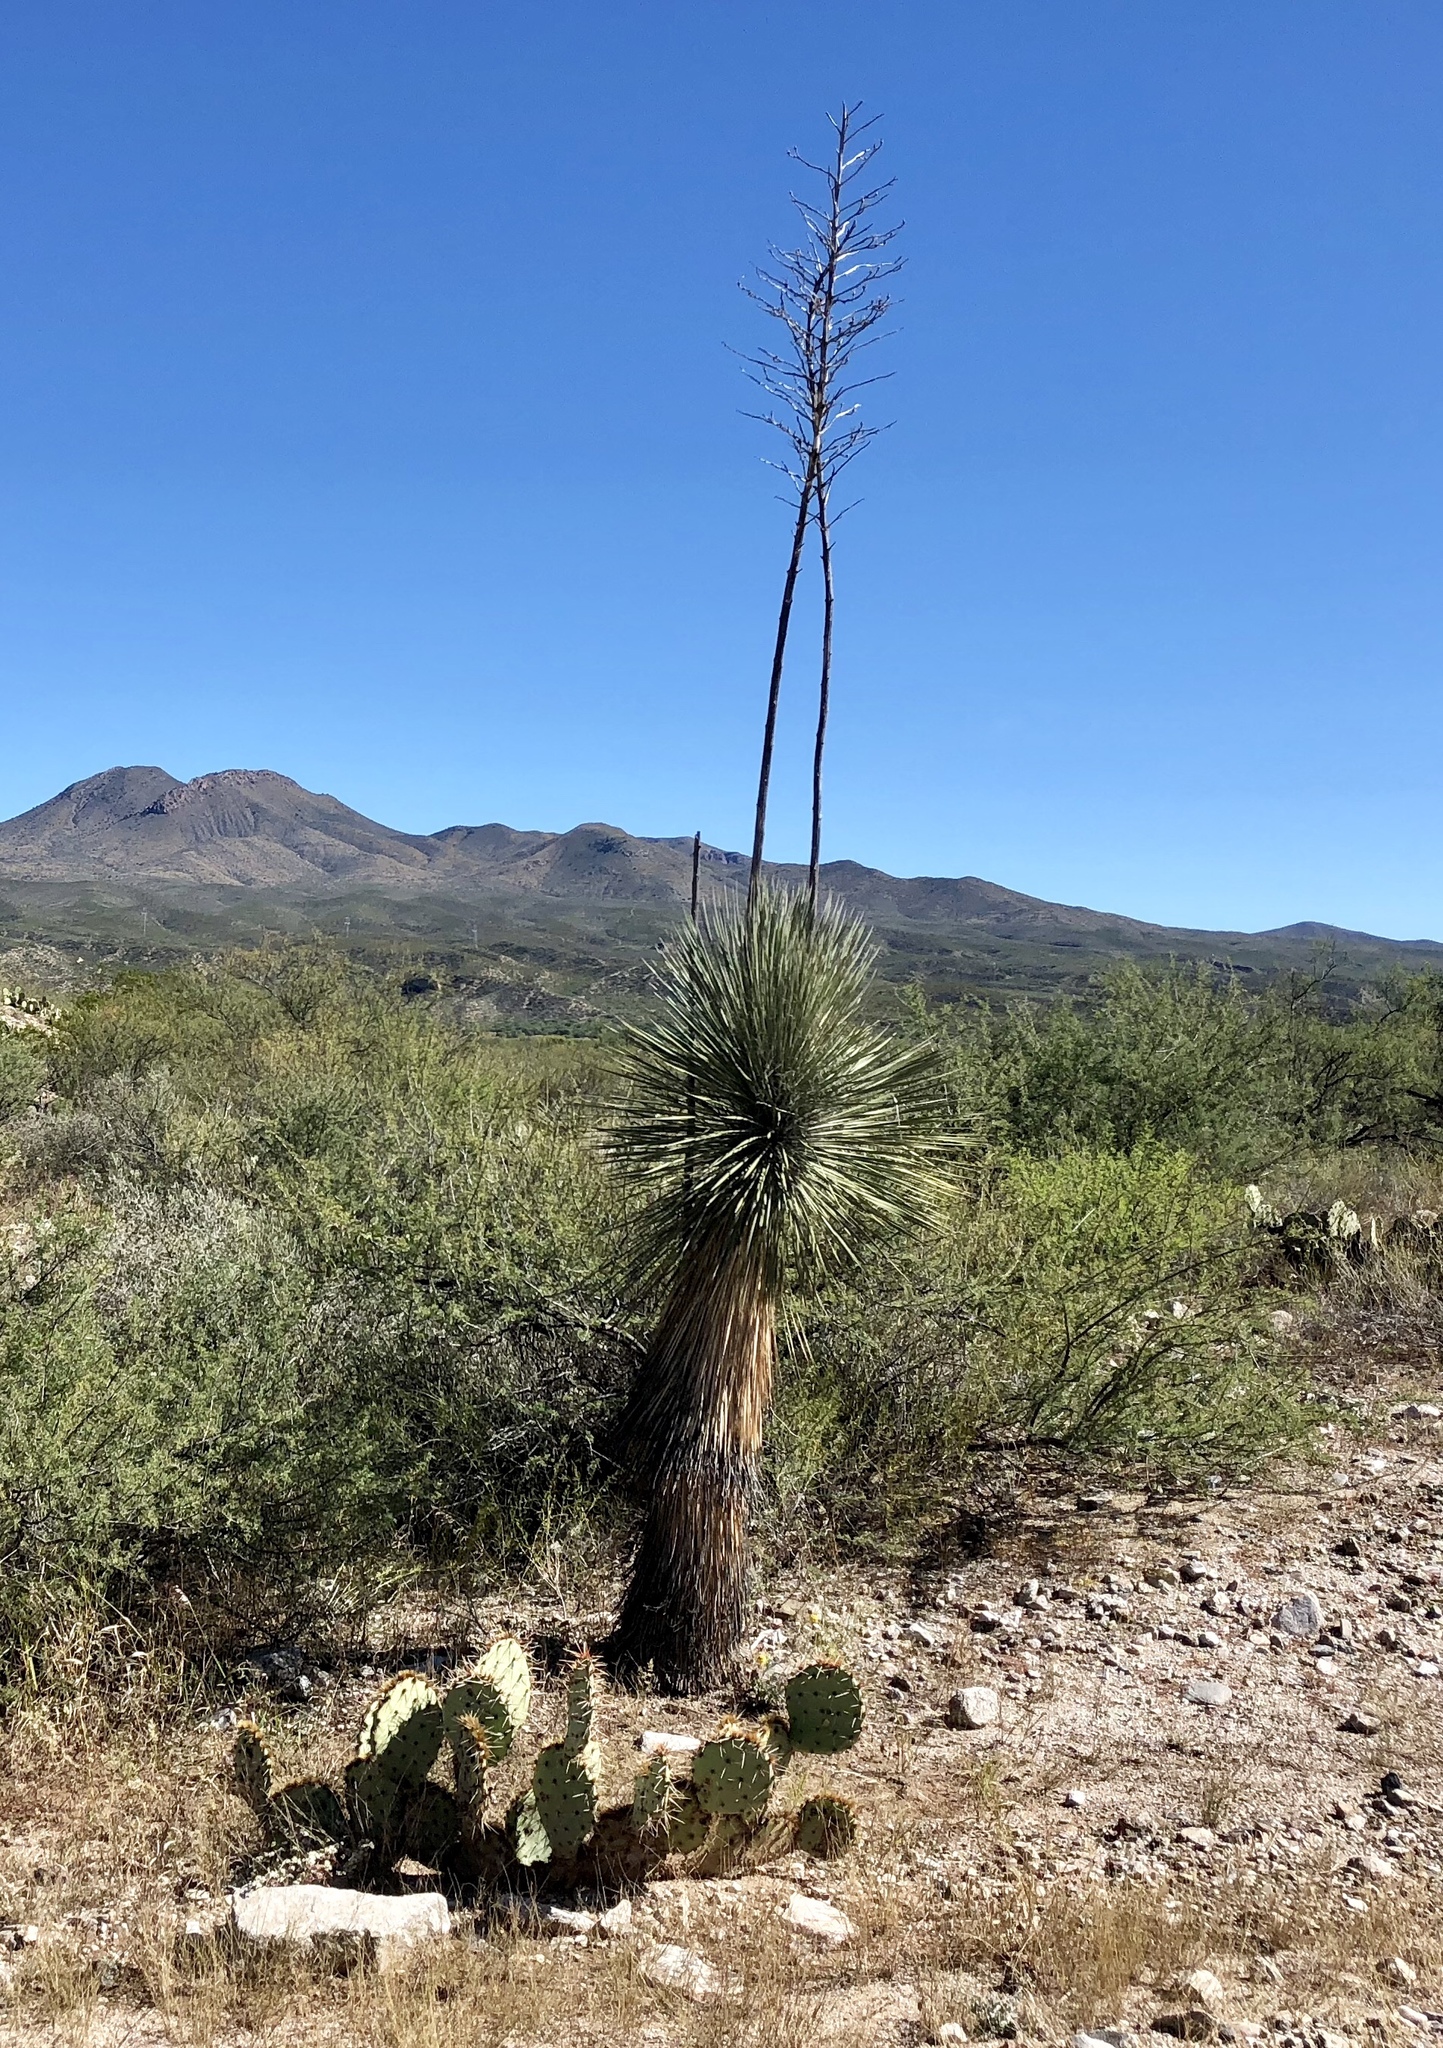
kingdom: Plantae
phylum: Tracheophyta
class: Liliopsida
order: Asparagales
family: Asparagaceae
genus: Yucca
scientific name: Yucca elata
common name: Palmella
